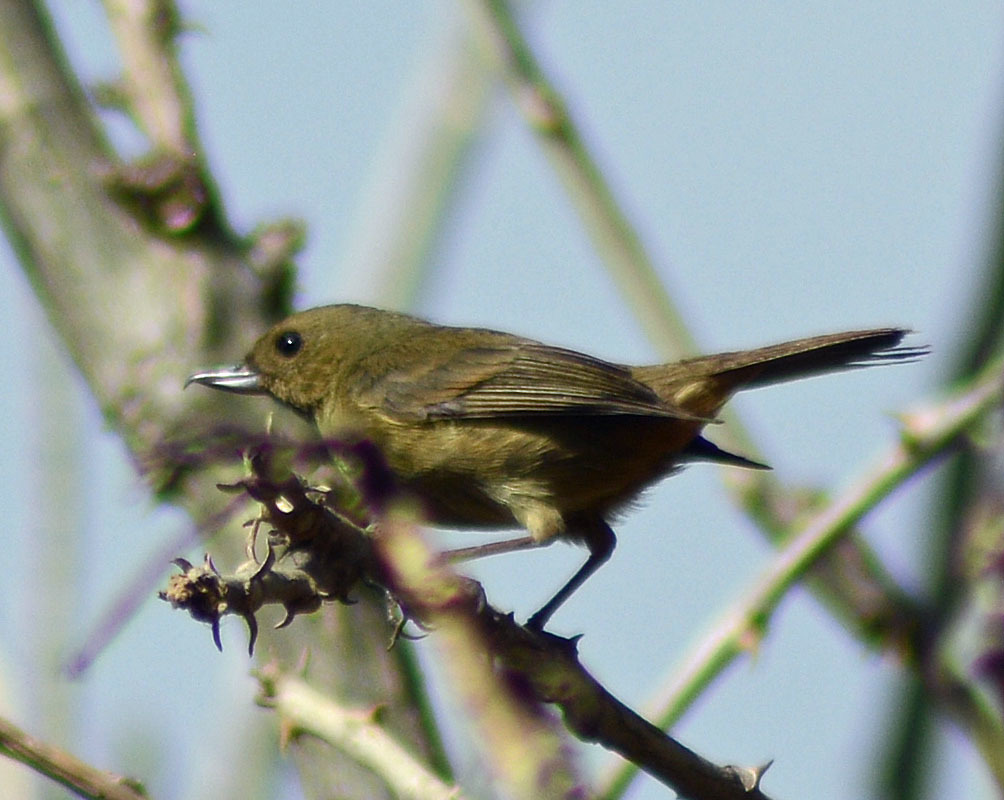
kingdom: Animalia
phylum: Chordata
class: Aves
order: Passeriformes
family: Thraupidae
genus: Diglossa
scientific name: Diglossa baritula
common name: Cinnamon-bellied flowerpiercer
